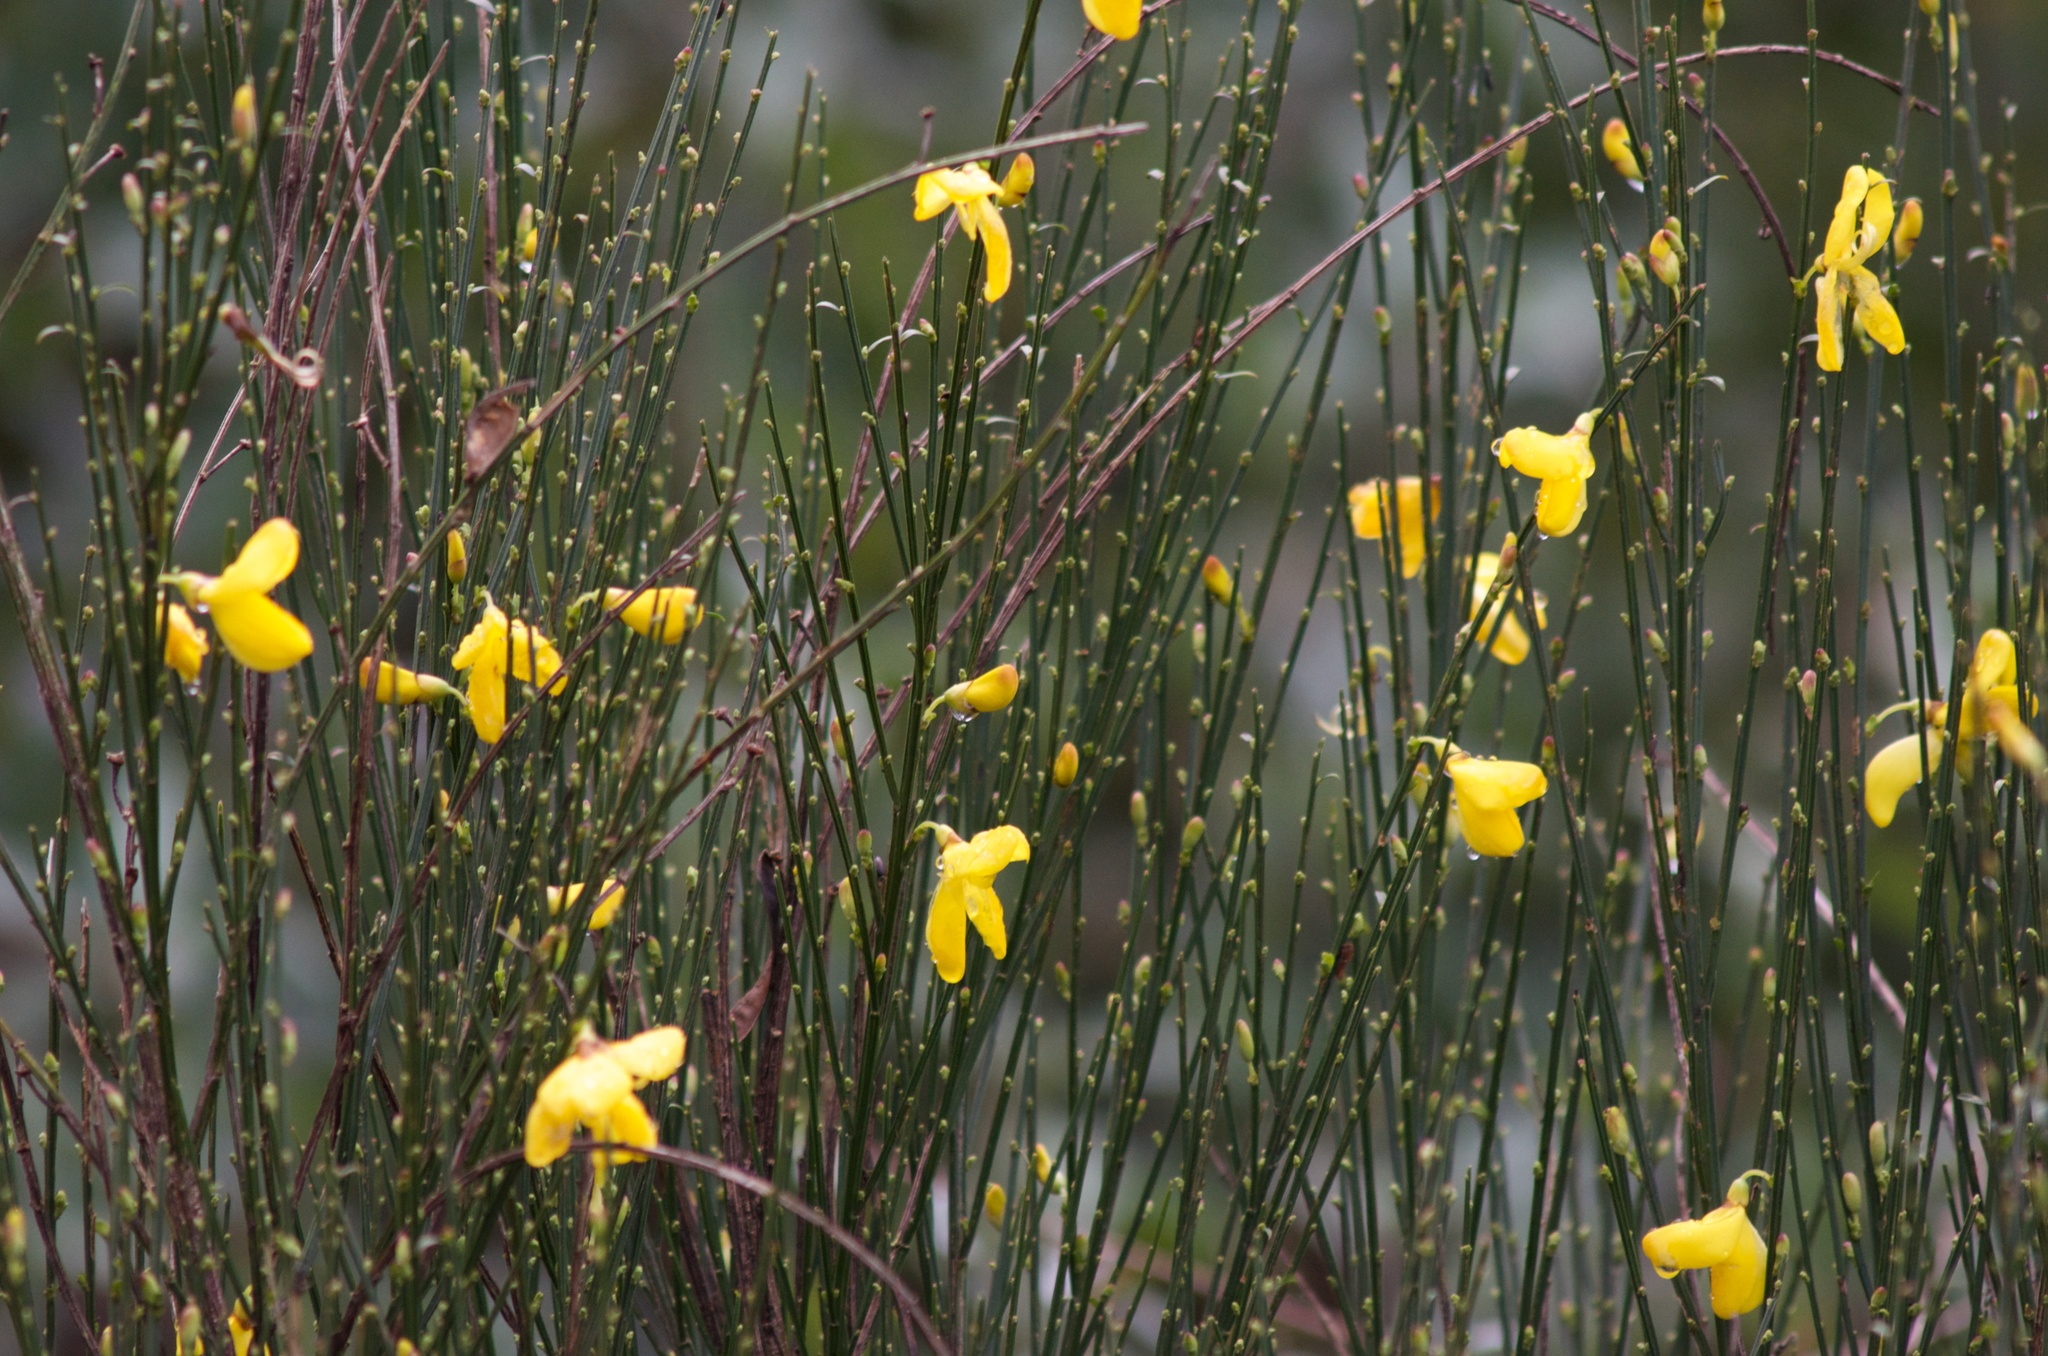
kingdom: Plantae
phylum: Tracheophyta
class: Magnoliopsida
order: Fabales
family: Fabaceae
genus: Cytisus
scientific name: Cytisus scoparius
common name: Scotch broom
